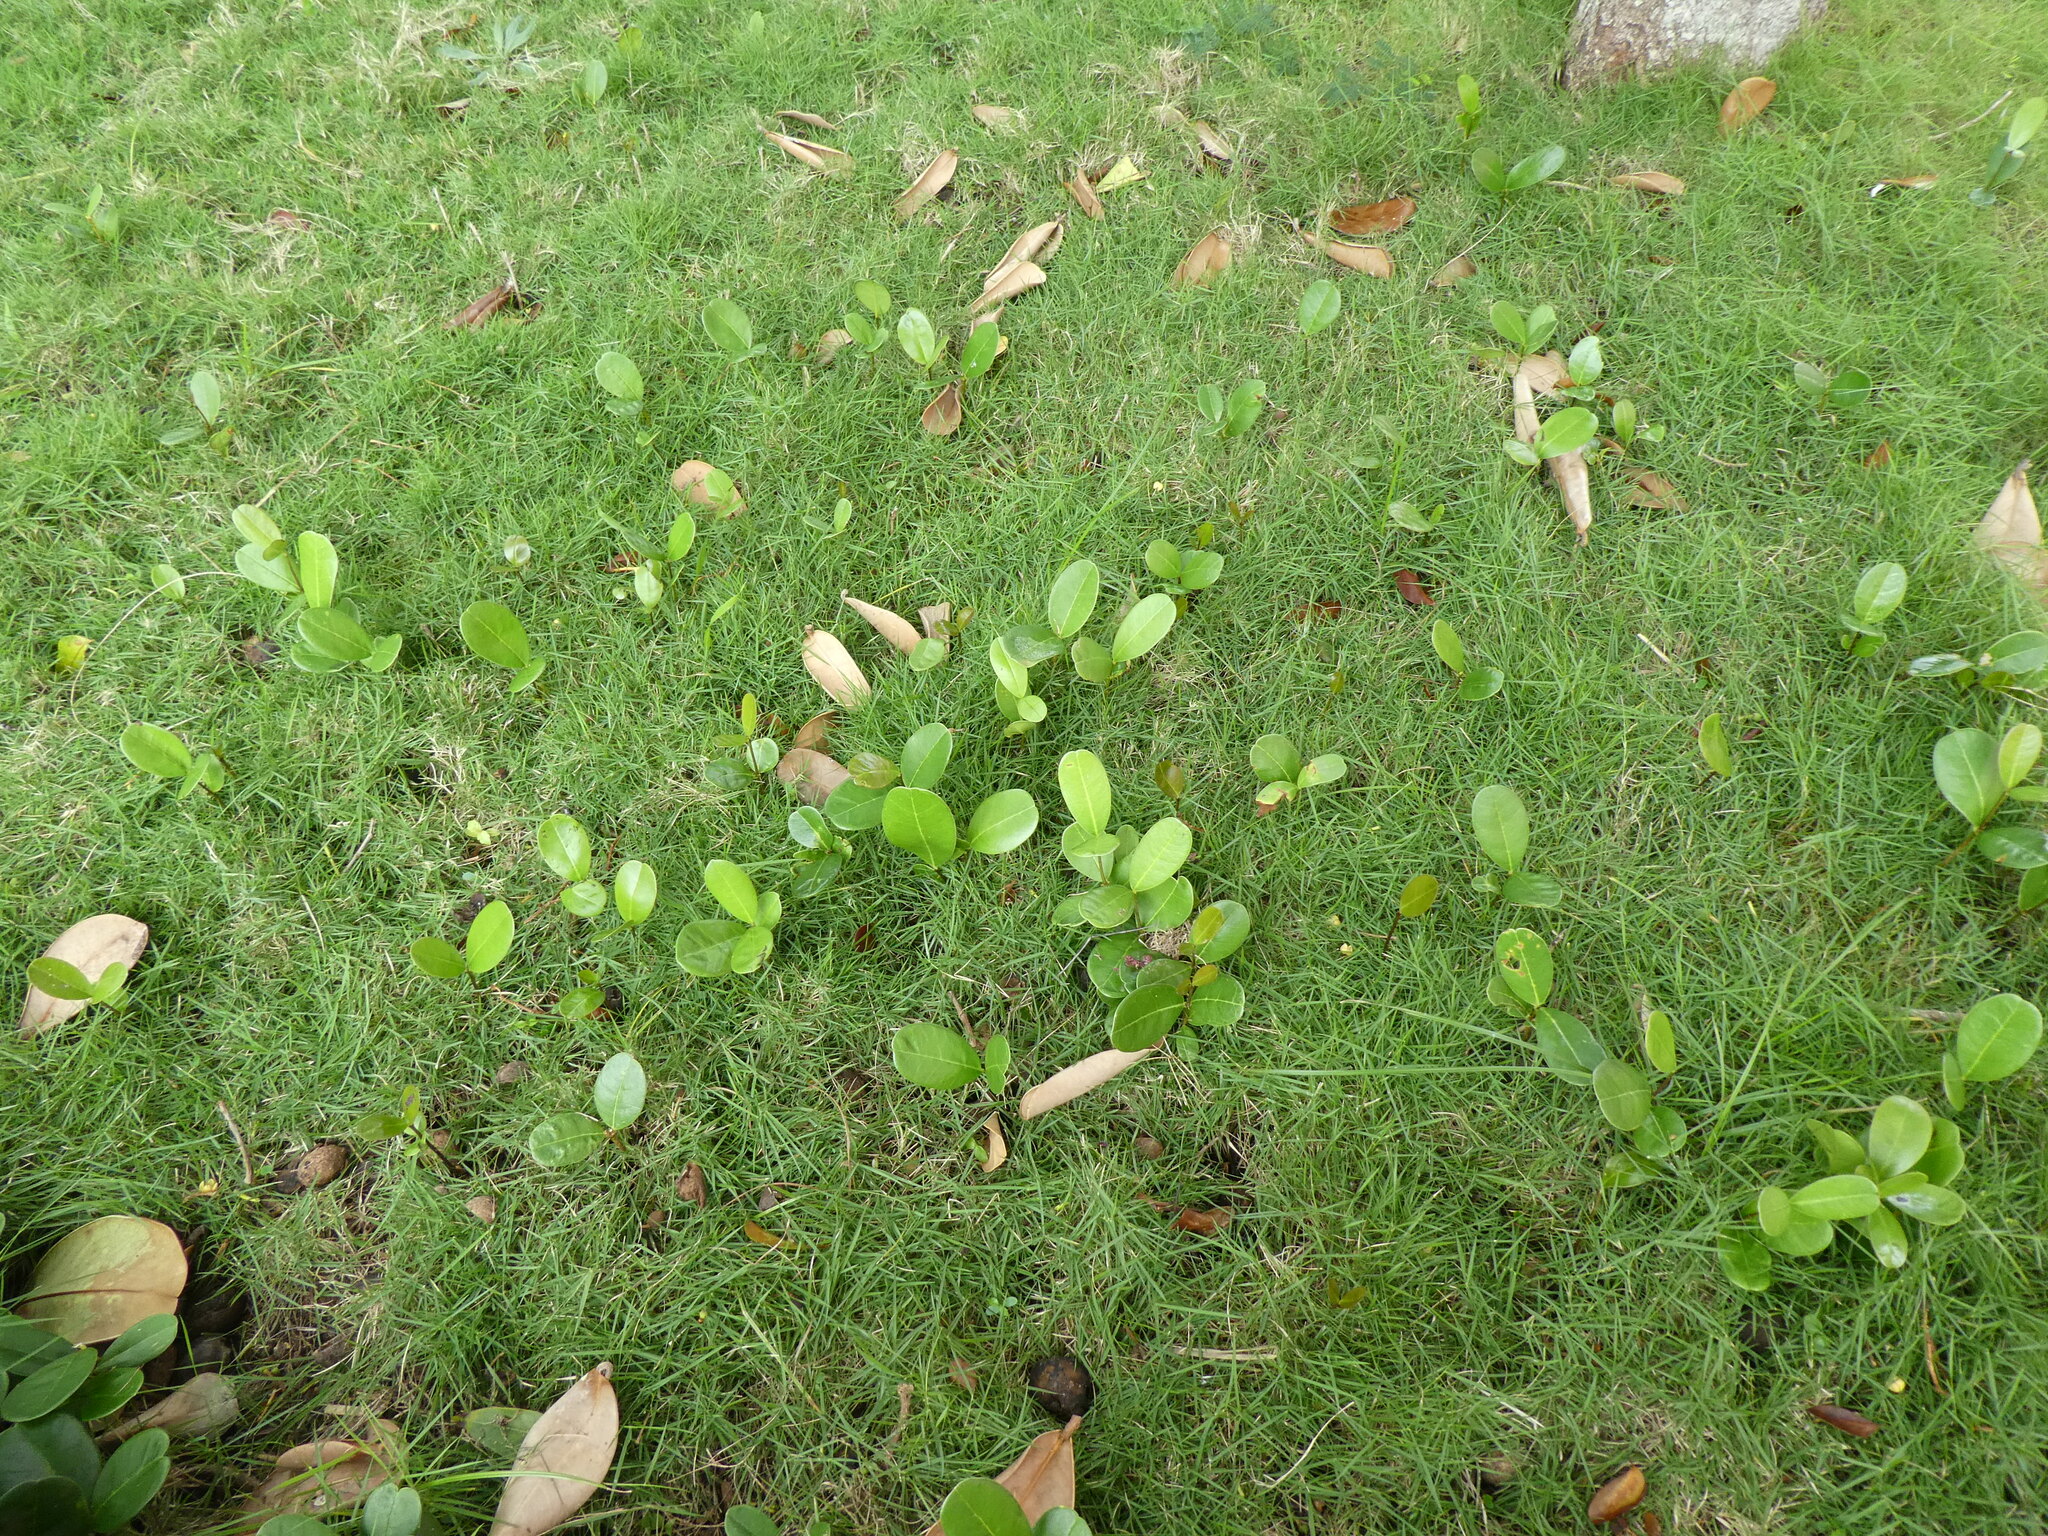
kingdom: Plantae
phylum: Tracheophyta
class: Magnoliopsida
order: Lamiales
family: Oleaceae
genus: Noronhia
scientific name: Noronhia emarginata
